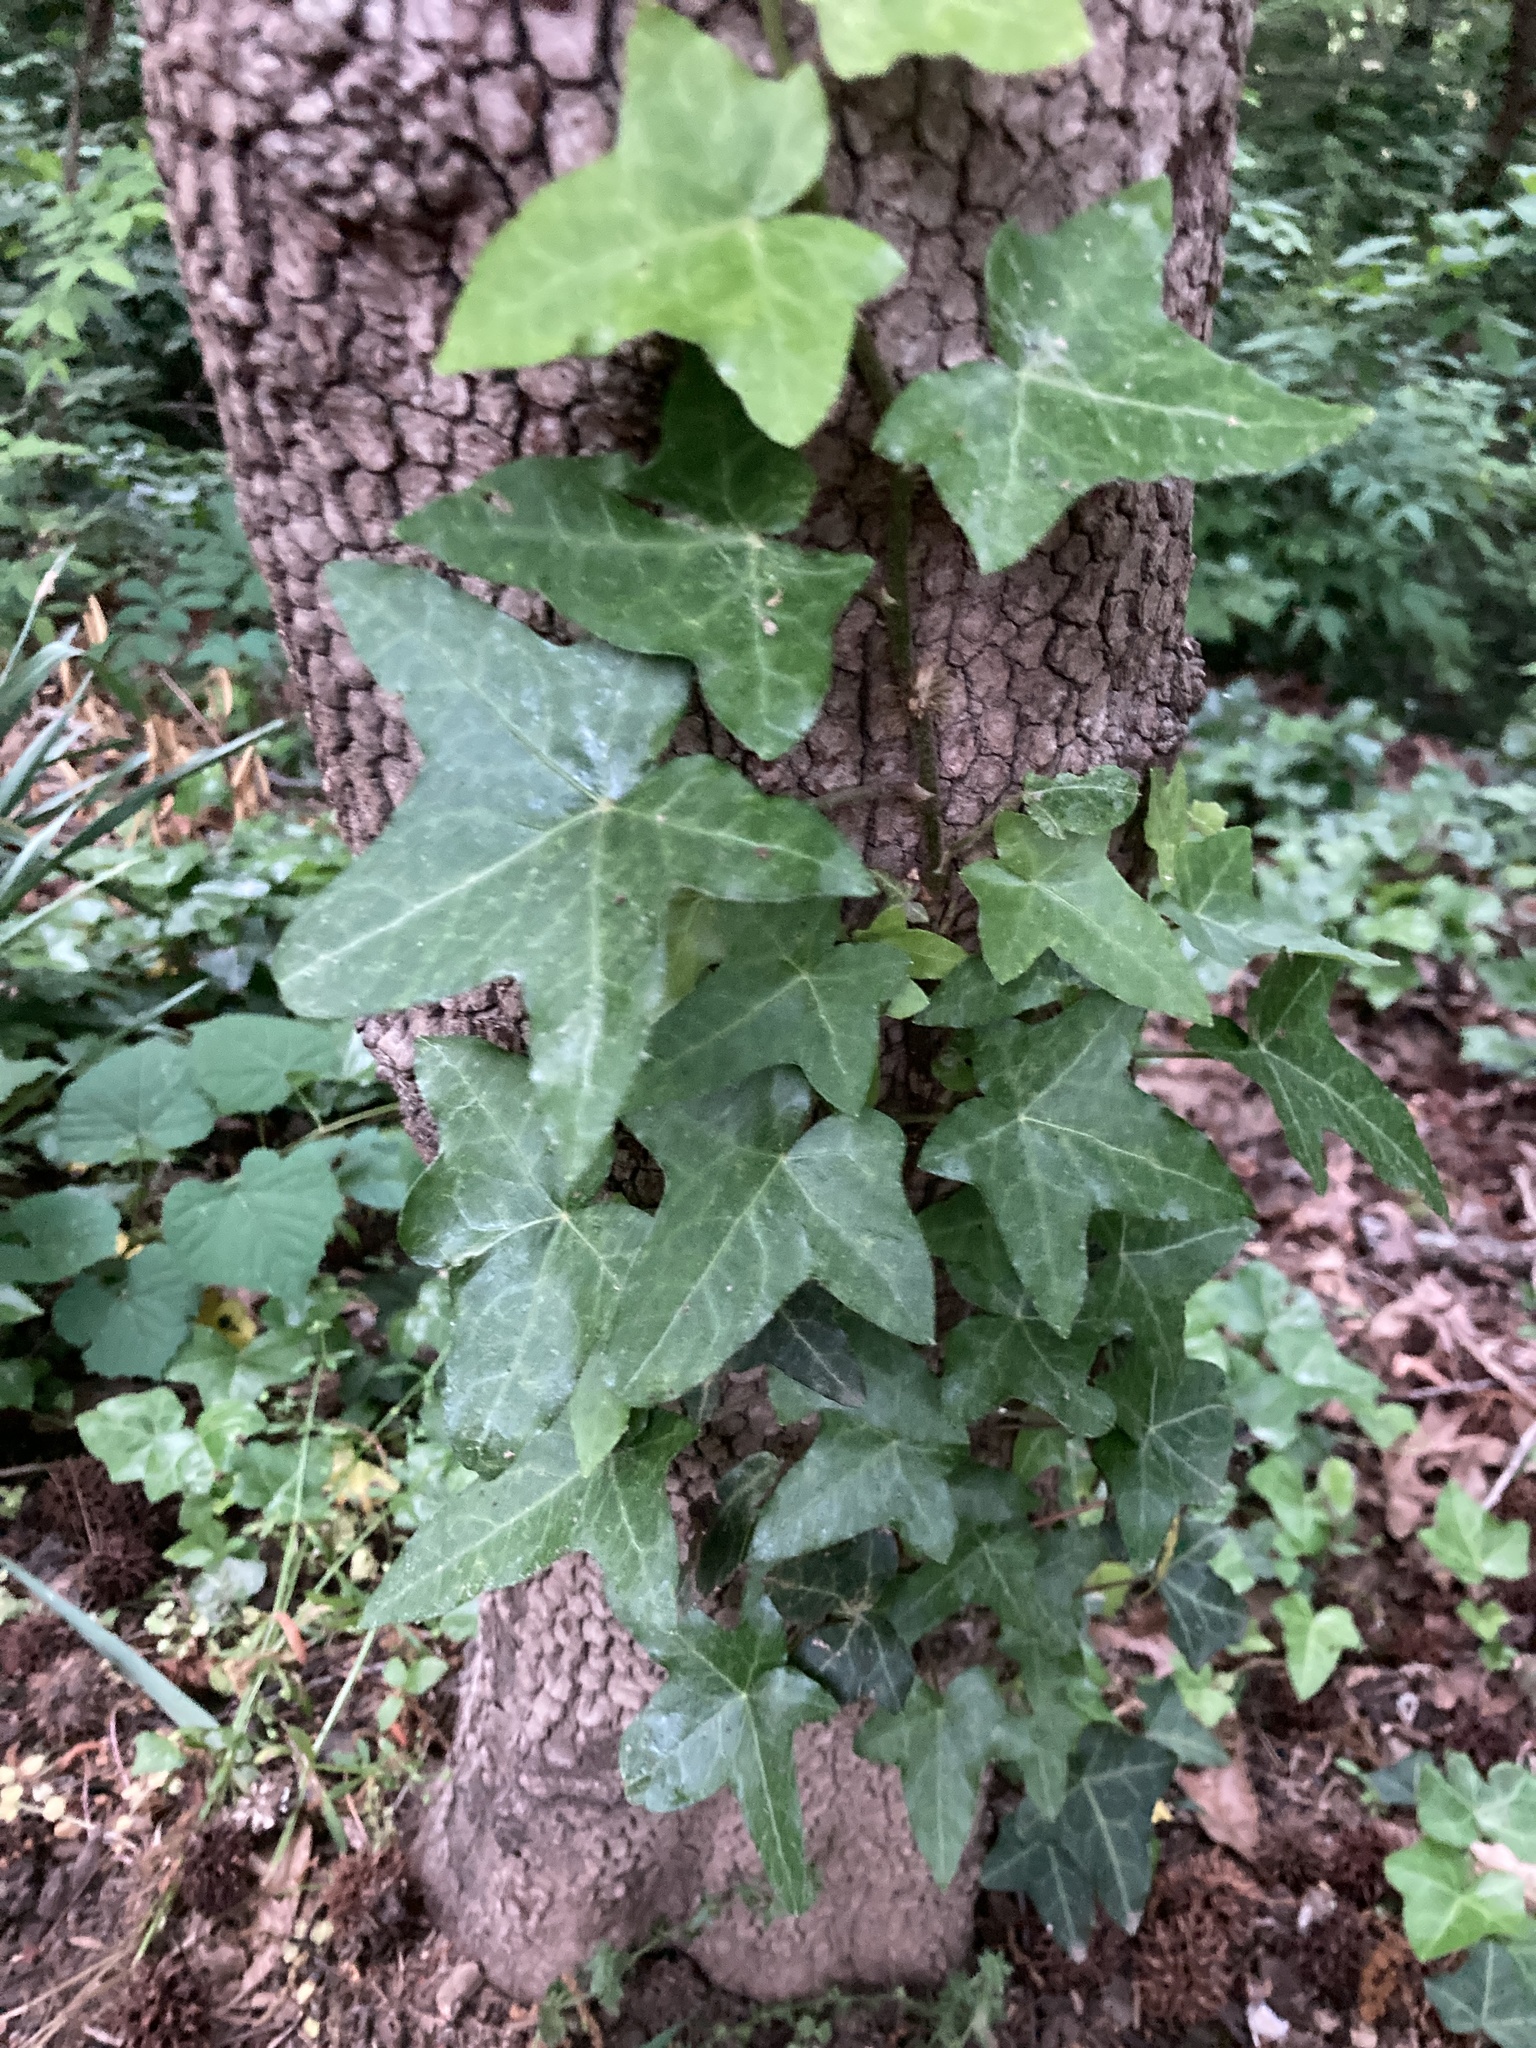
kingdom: Plantae
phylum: Tracheophyta
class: Magnoliopsida
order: Apiales
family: Araliaceae
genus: Hedera
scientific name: Hedera helix
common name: Ivy
